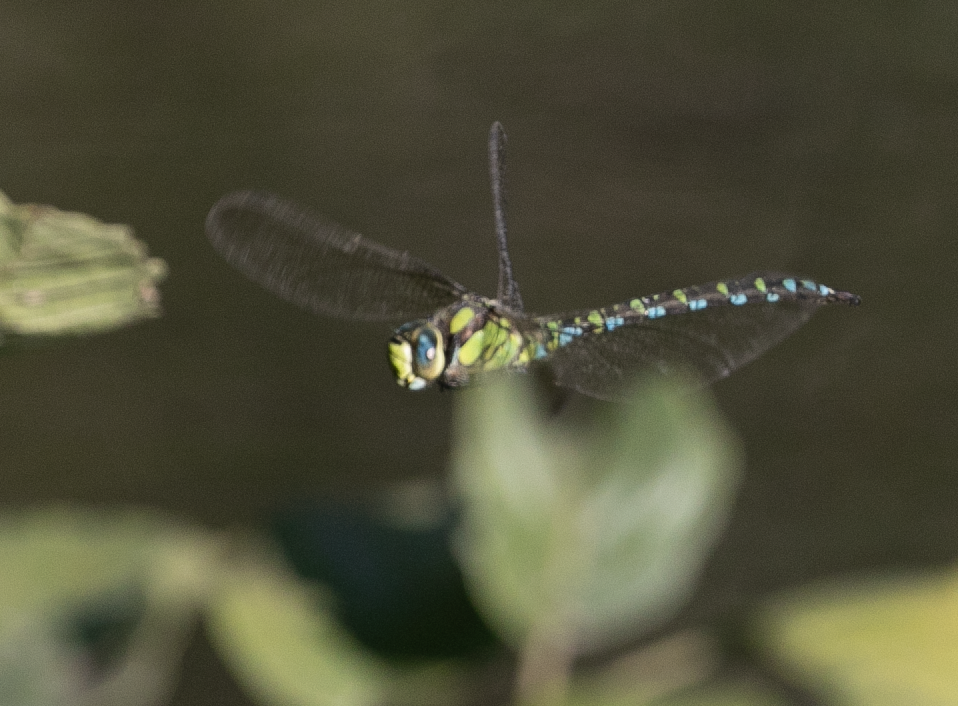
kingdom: Animalia
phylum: Arthropoda
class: Insecta
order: Odonata
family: Aeshnidae
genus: Aeshna
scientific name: Aeshna cyanea
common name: Southern hawker
